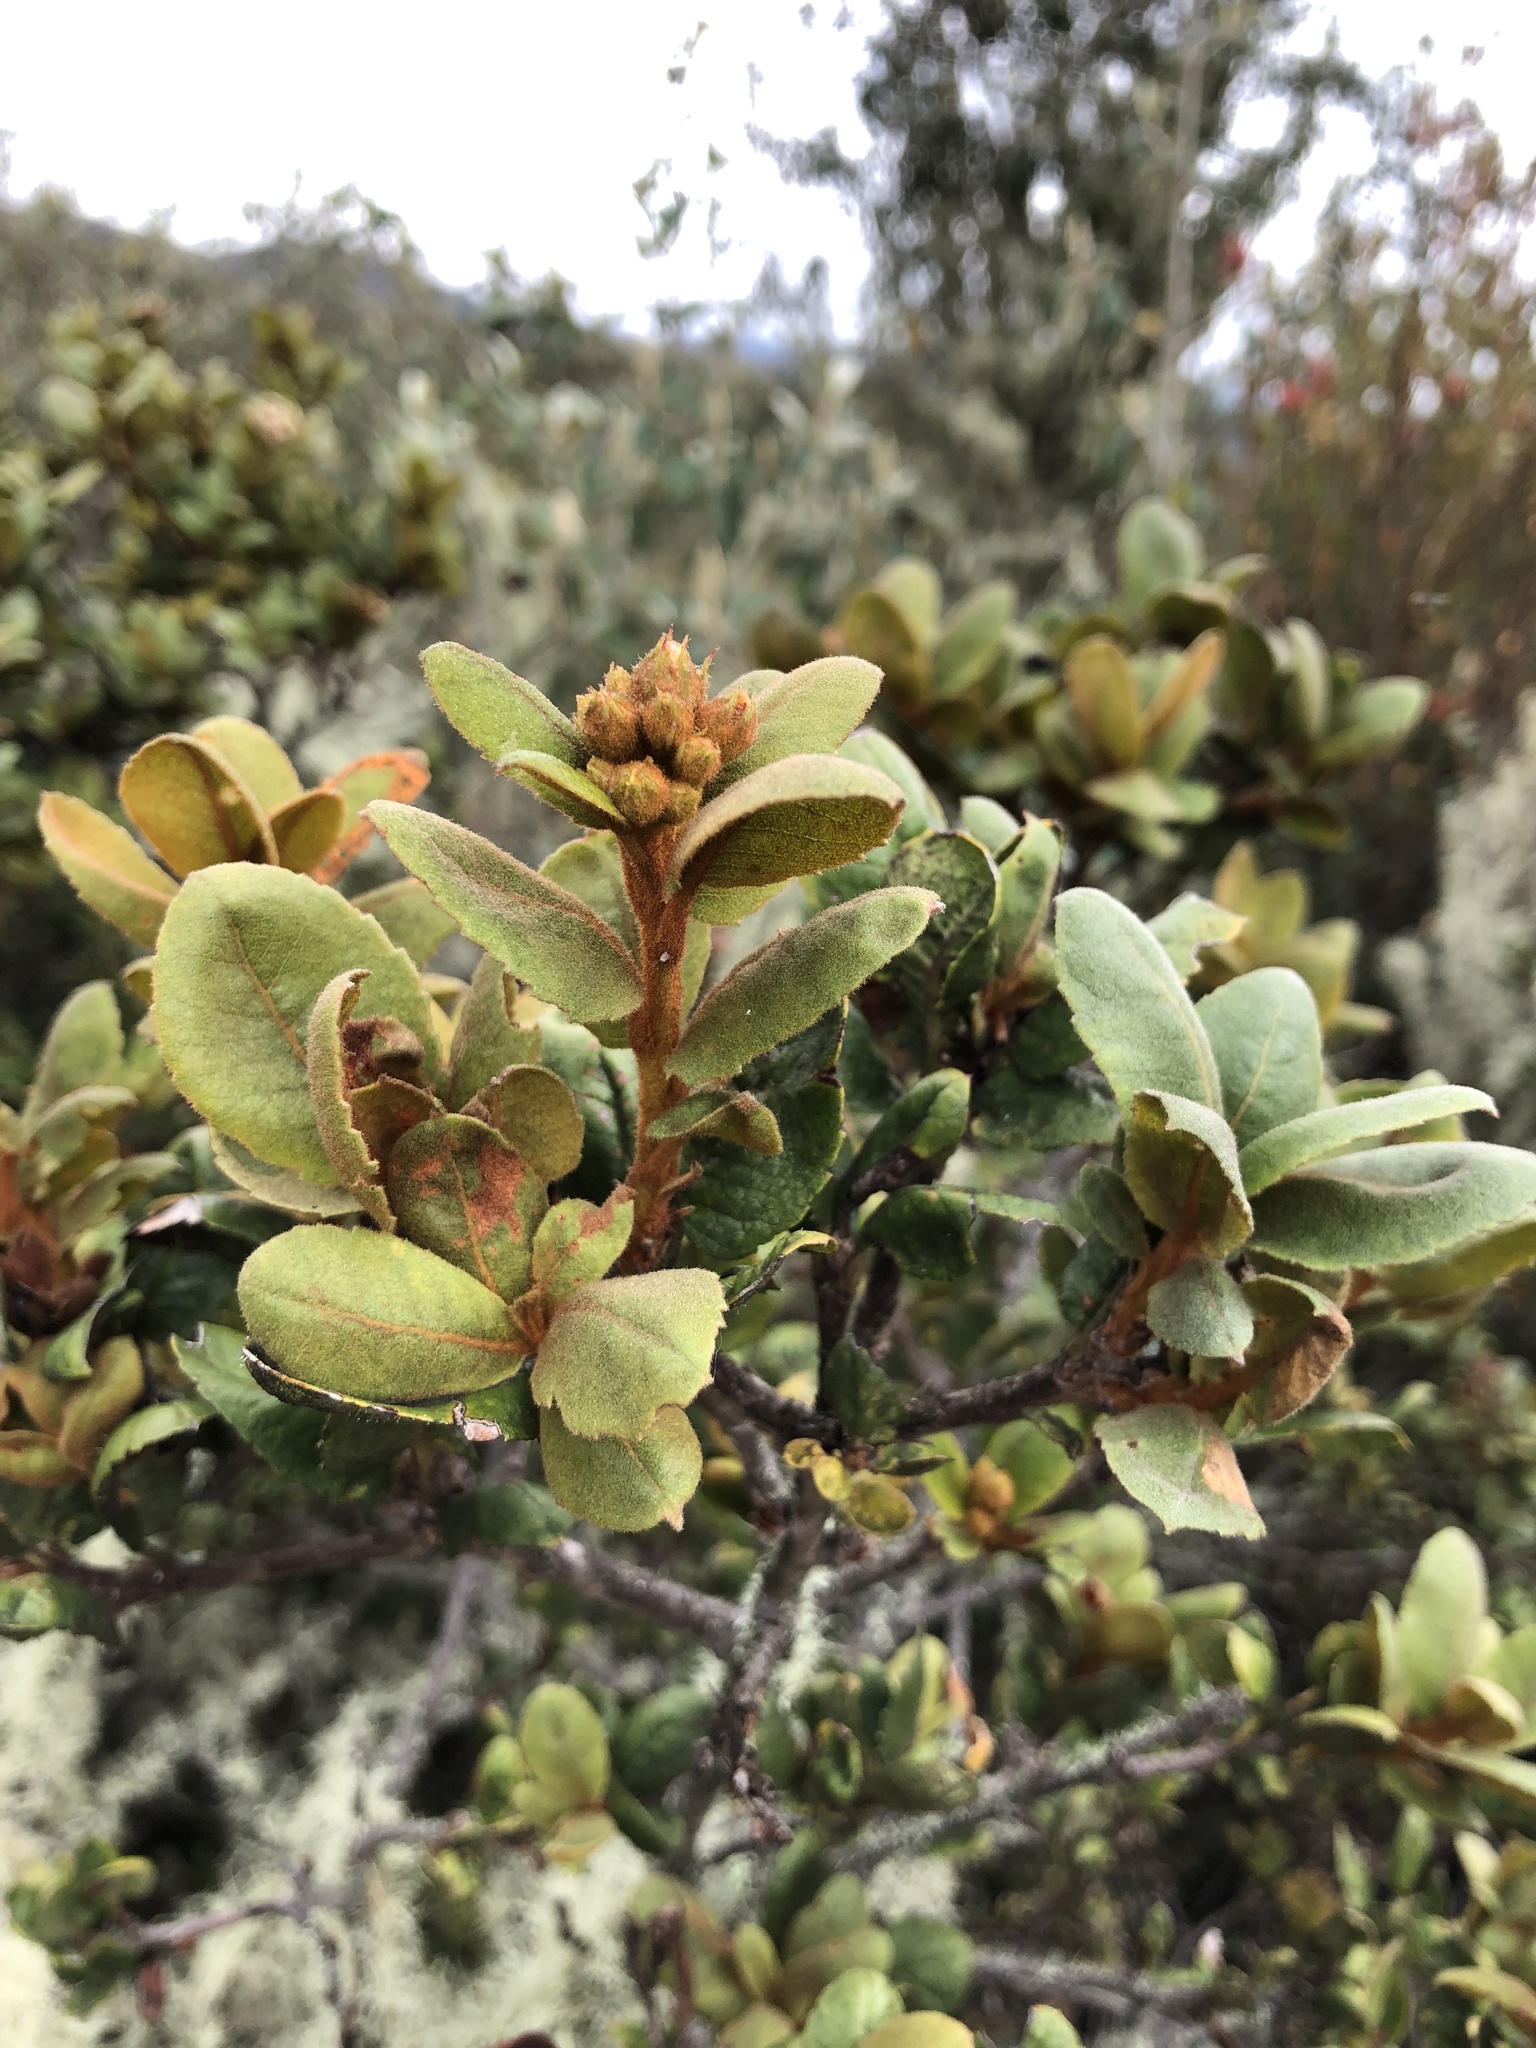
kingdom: Plantae
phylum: Tracheophyta
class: Magnoliopsida
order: Rosales
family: Rosaceae
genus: Hesperomeles
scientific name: Hesperomeles goudotiana
